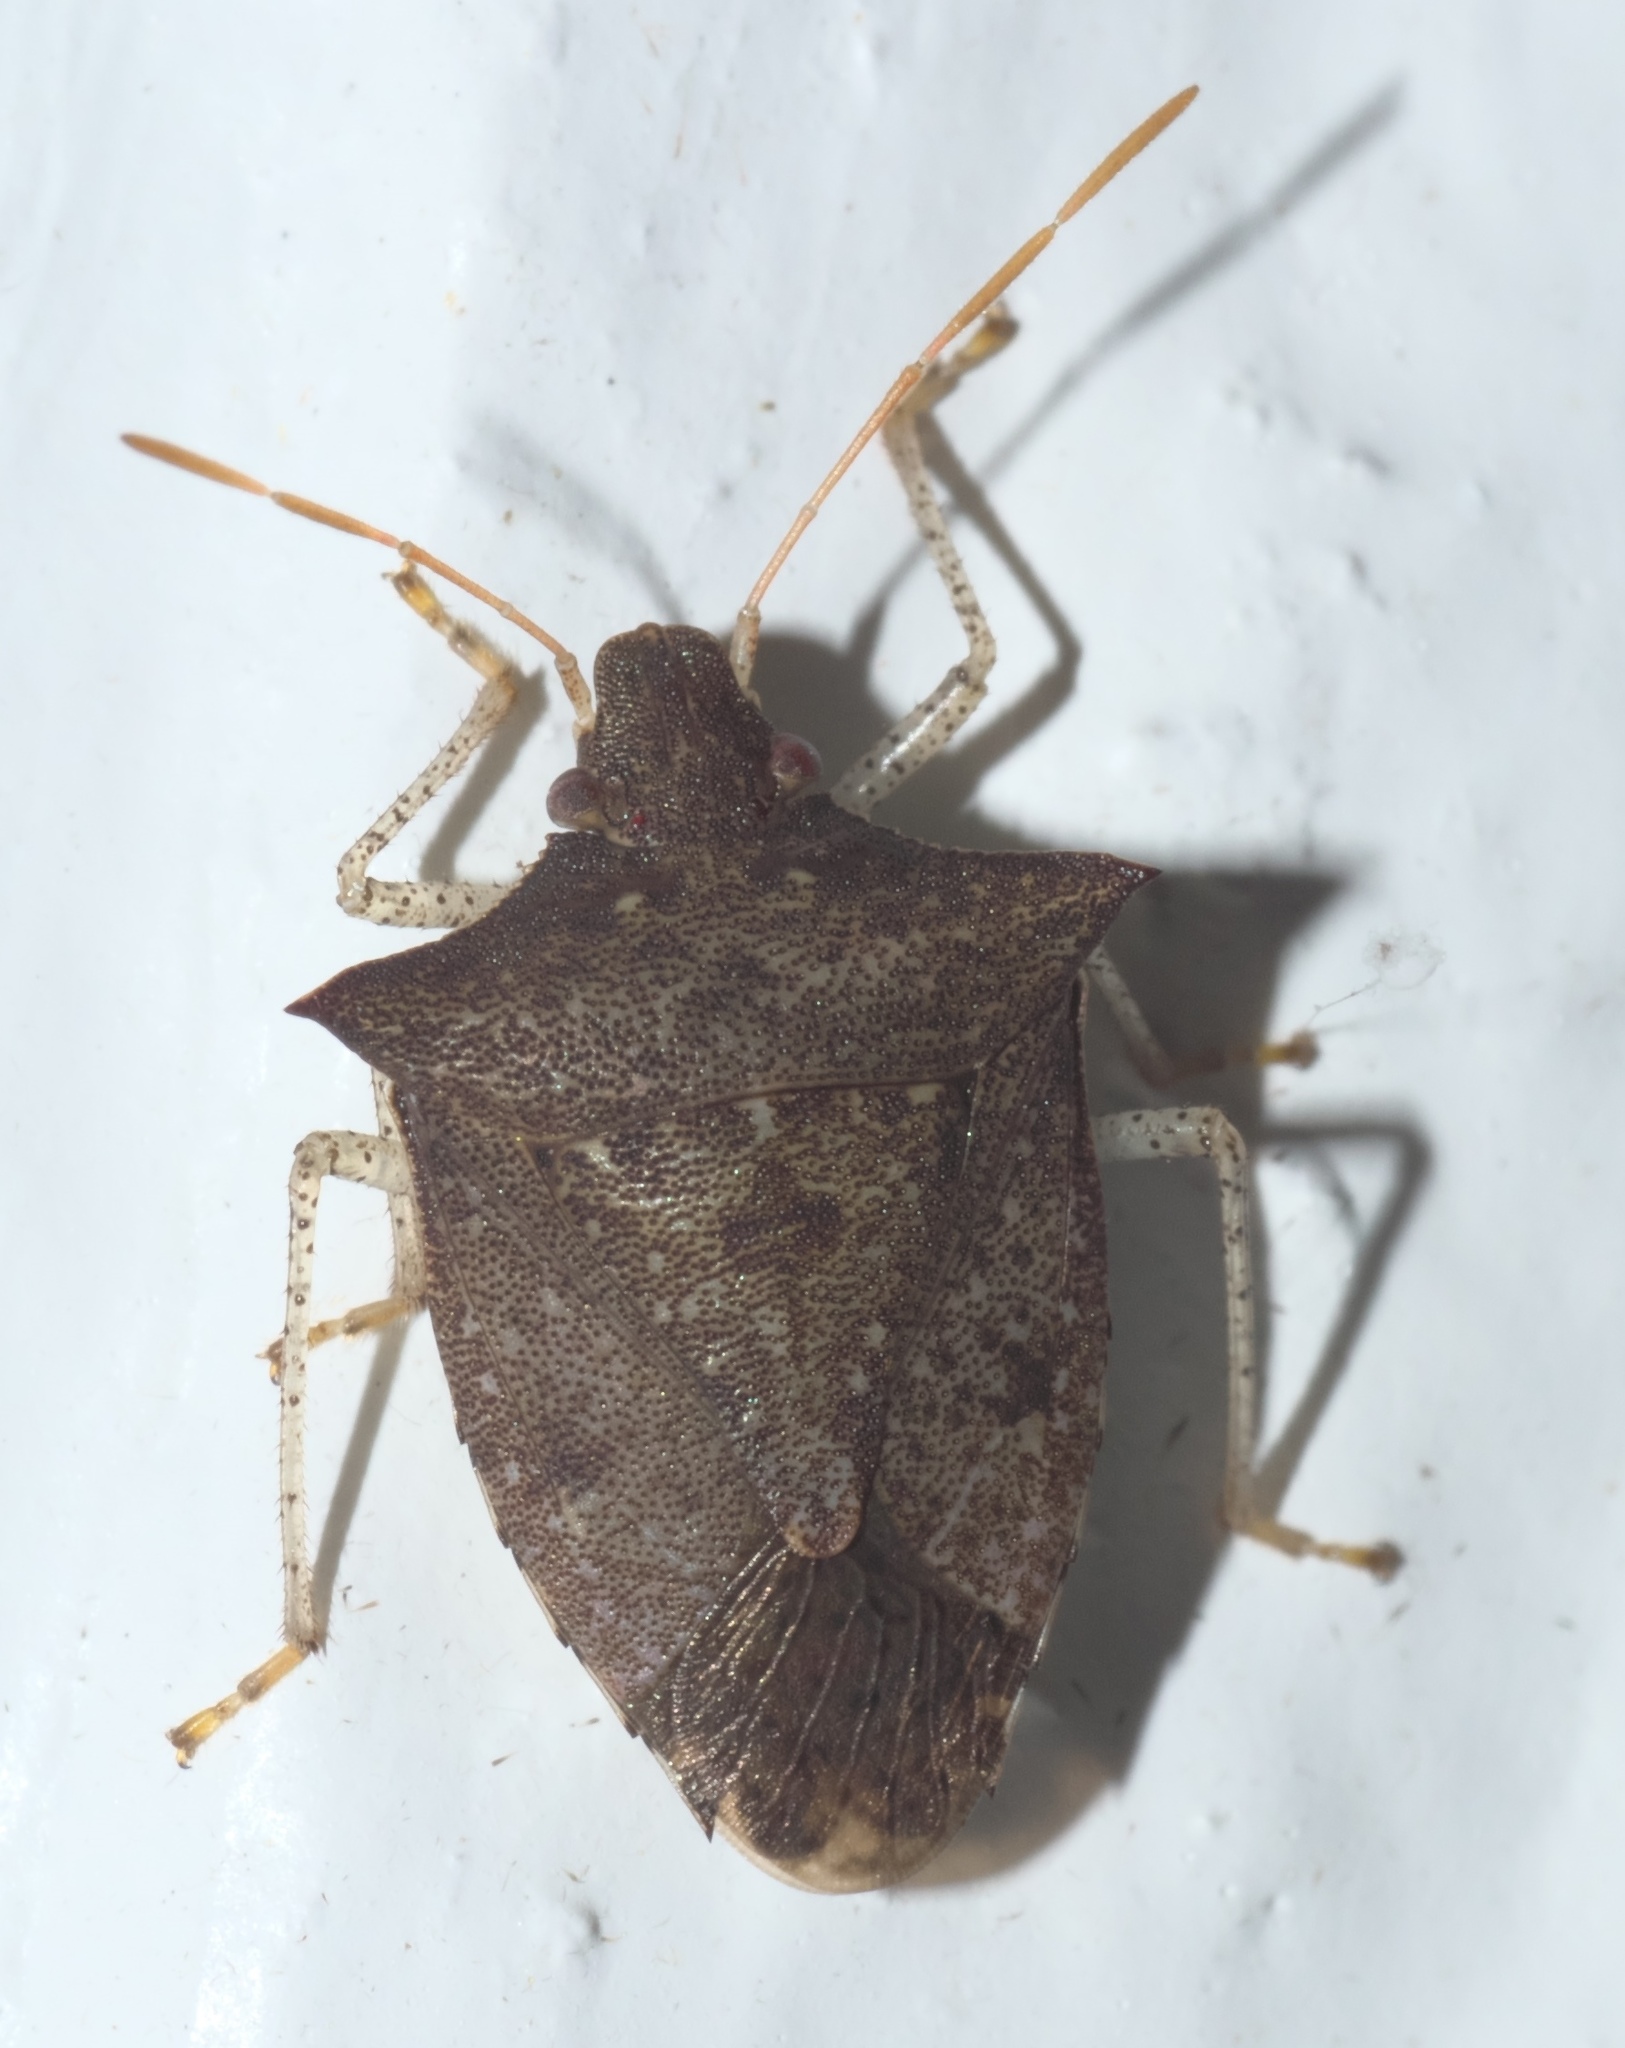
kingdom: Animalia
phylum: Arthropoda
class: Insecta
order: Hemiptera
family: Pentatomidae
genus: Euschistus
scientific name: Euschistus tristigmus
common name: Dusky stink bug
